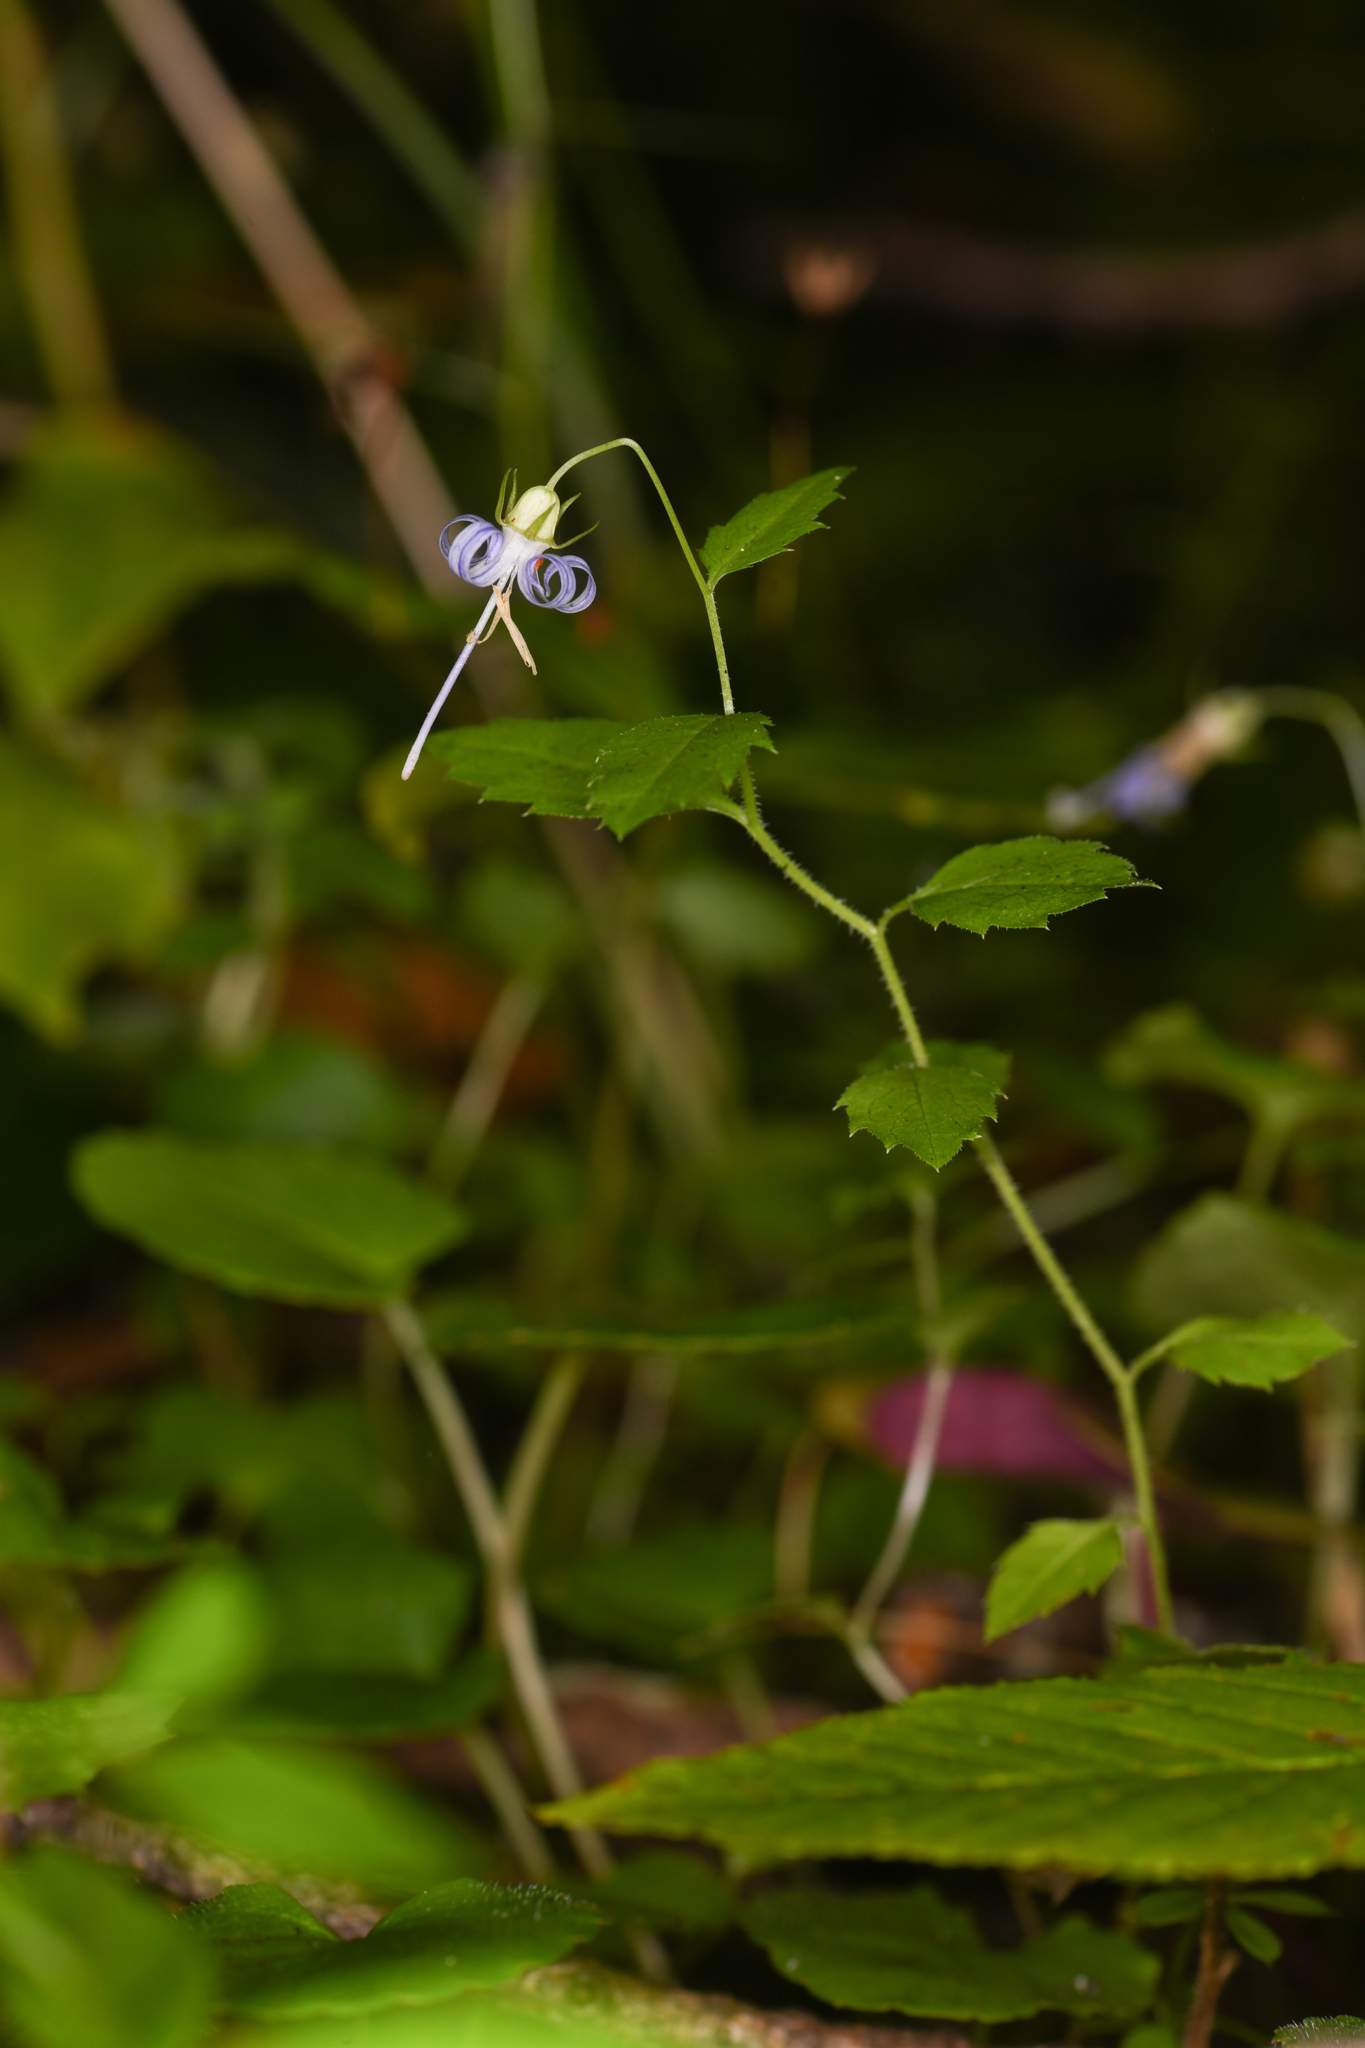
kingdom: Plantae
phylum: Tracheophyta
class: Magnoliopsida
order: Asterales
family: Campanulaceae
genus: Smithiastrum
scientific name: Smithiastrum prenanthoides
